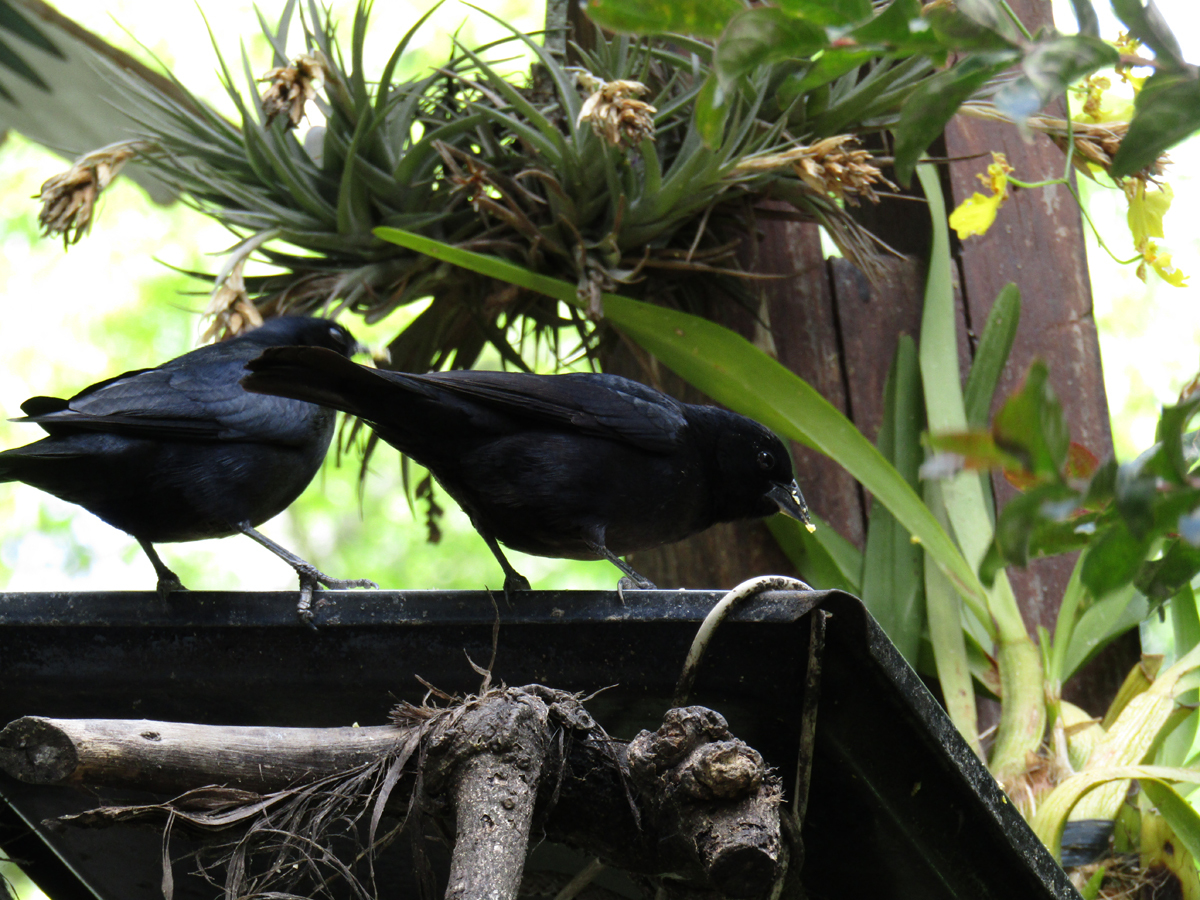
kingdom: Animalia
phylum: Chordata
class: Aves
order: Passeriformes
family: Icteridae
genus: Molothrus
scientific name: Molothrus bonariensis
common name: Shiny cowbird
